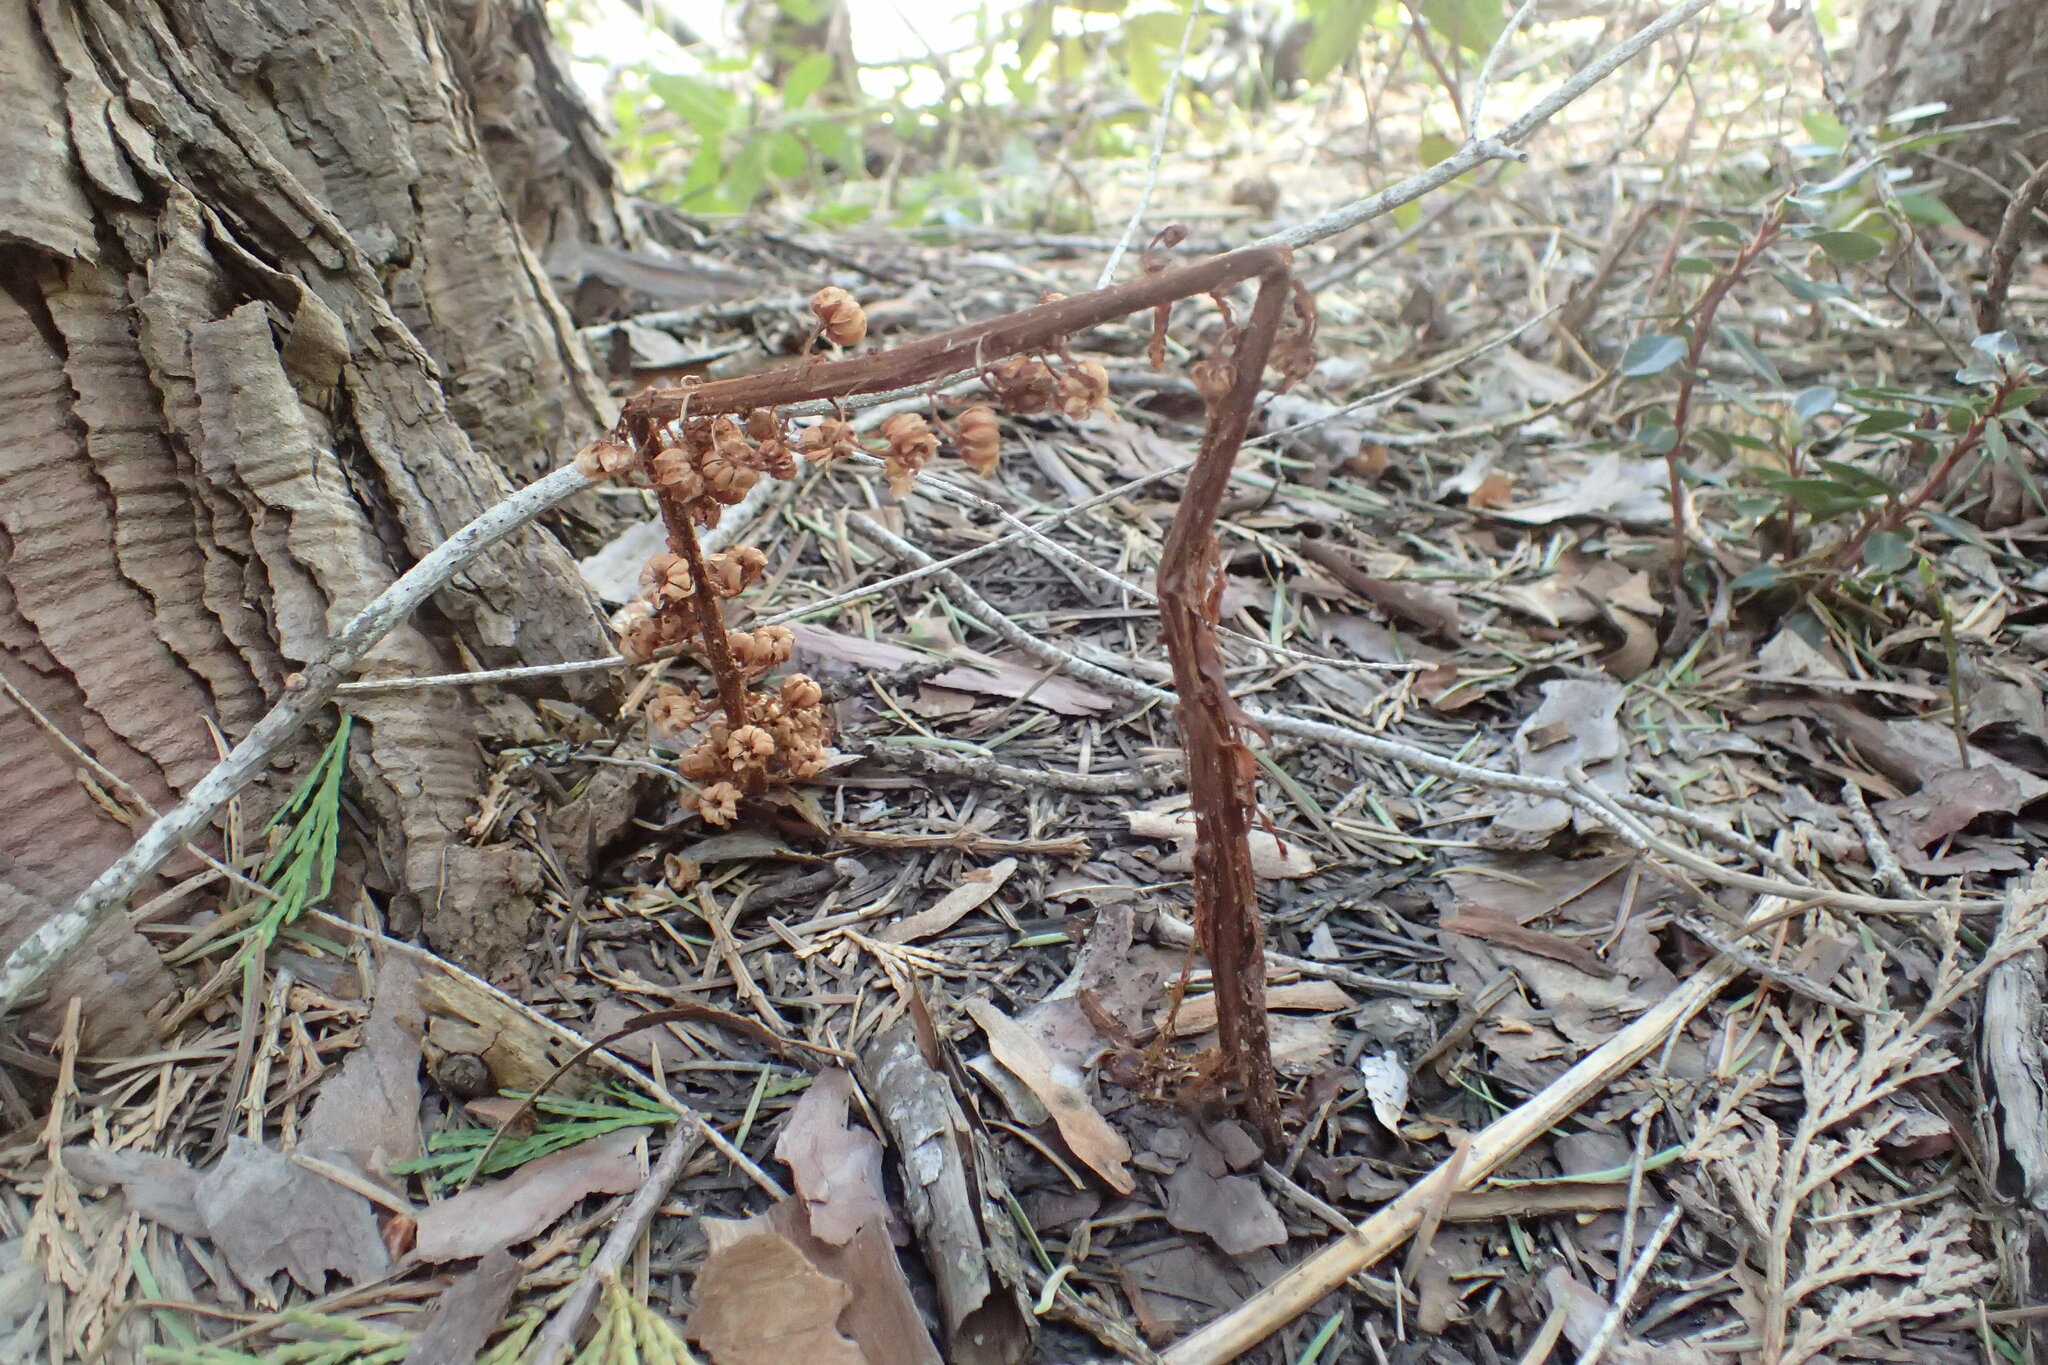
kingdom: Plantae
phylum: Tracheophyta
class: Magnoliopsida
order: Ericales
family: Ericaceae
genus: Pterospora
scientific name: Pterospora andromedea
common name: Giant bird's-nest
